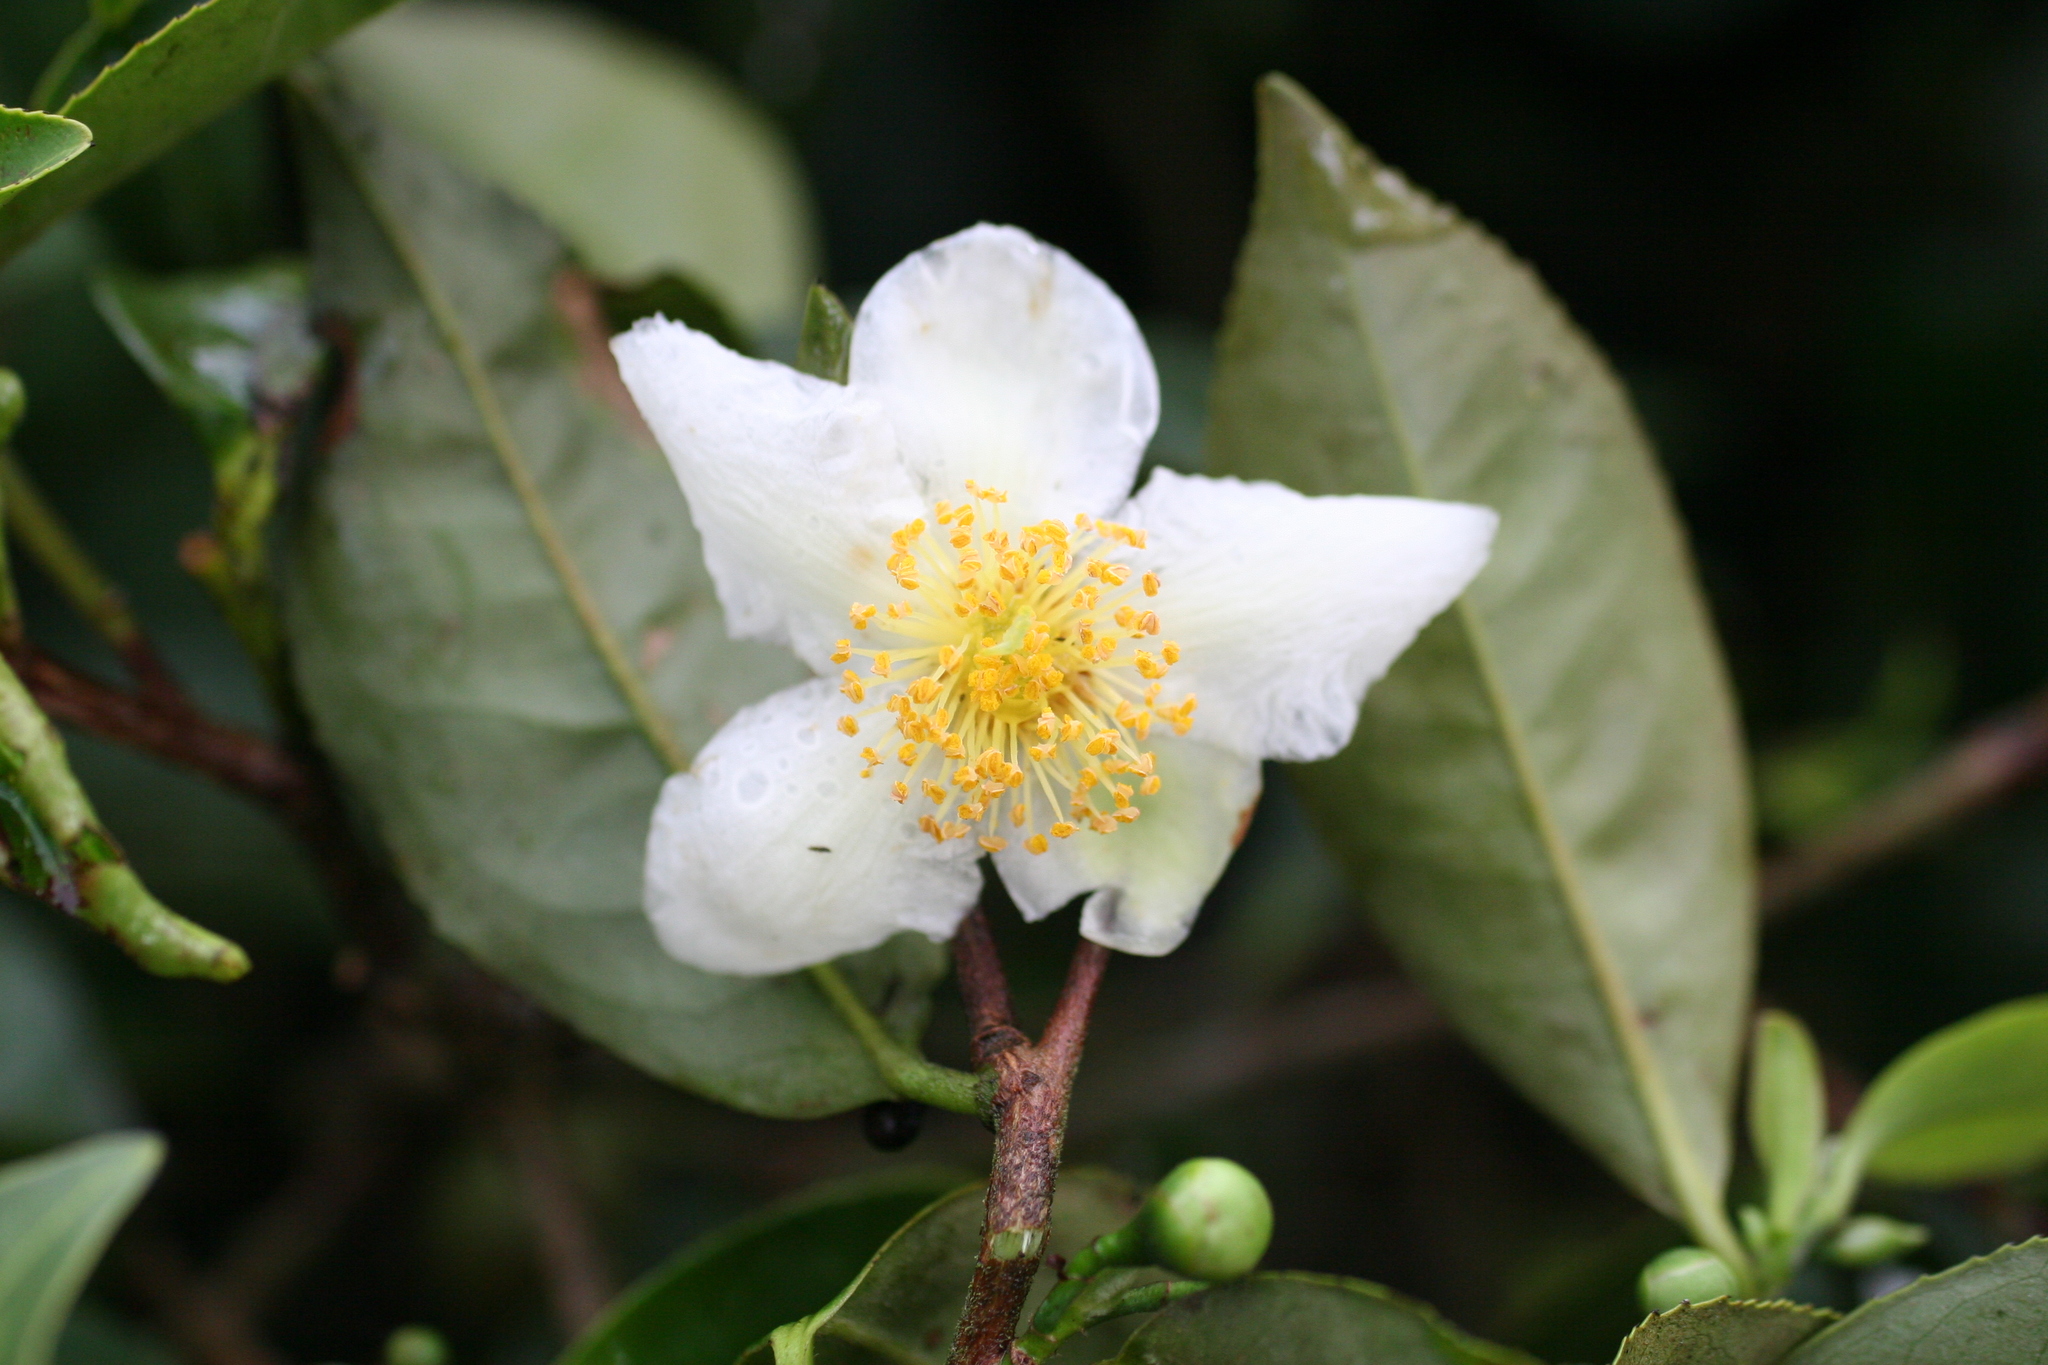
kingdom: Plantae
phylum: Tracheophyta
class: Magnoliopsida
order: Ericales
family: Theaceae
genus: Camellia
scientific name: Camellia sinensis
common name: Tea
